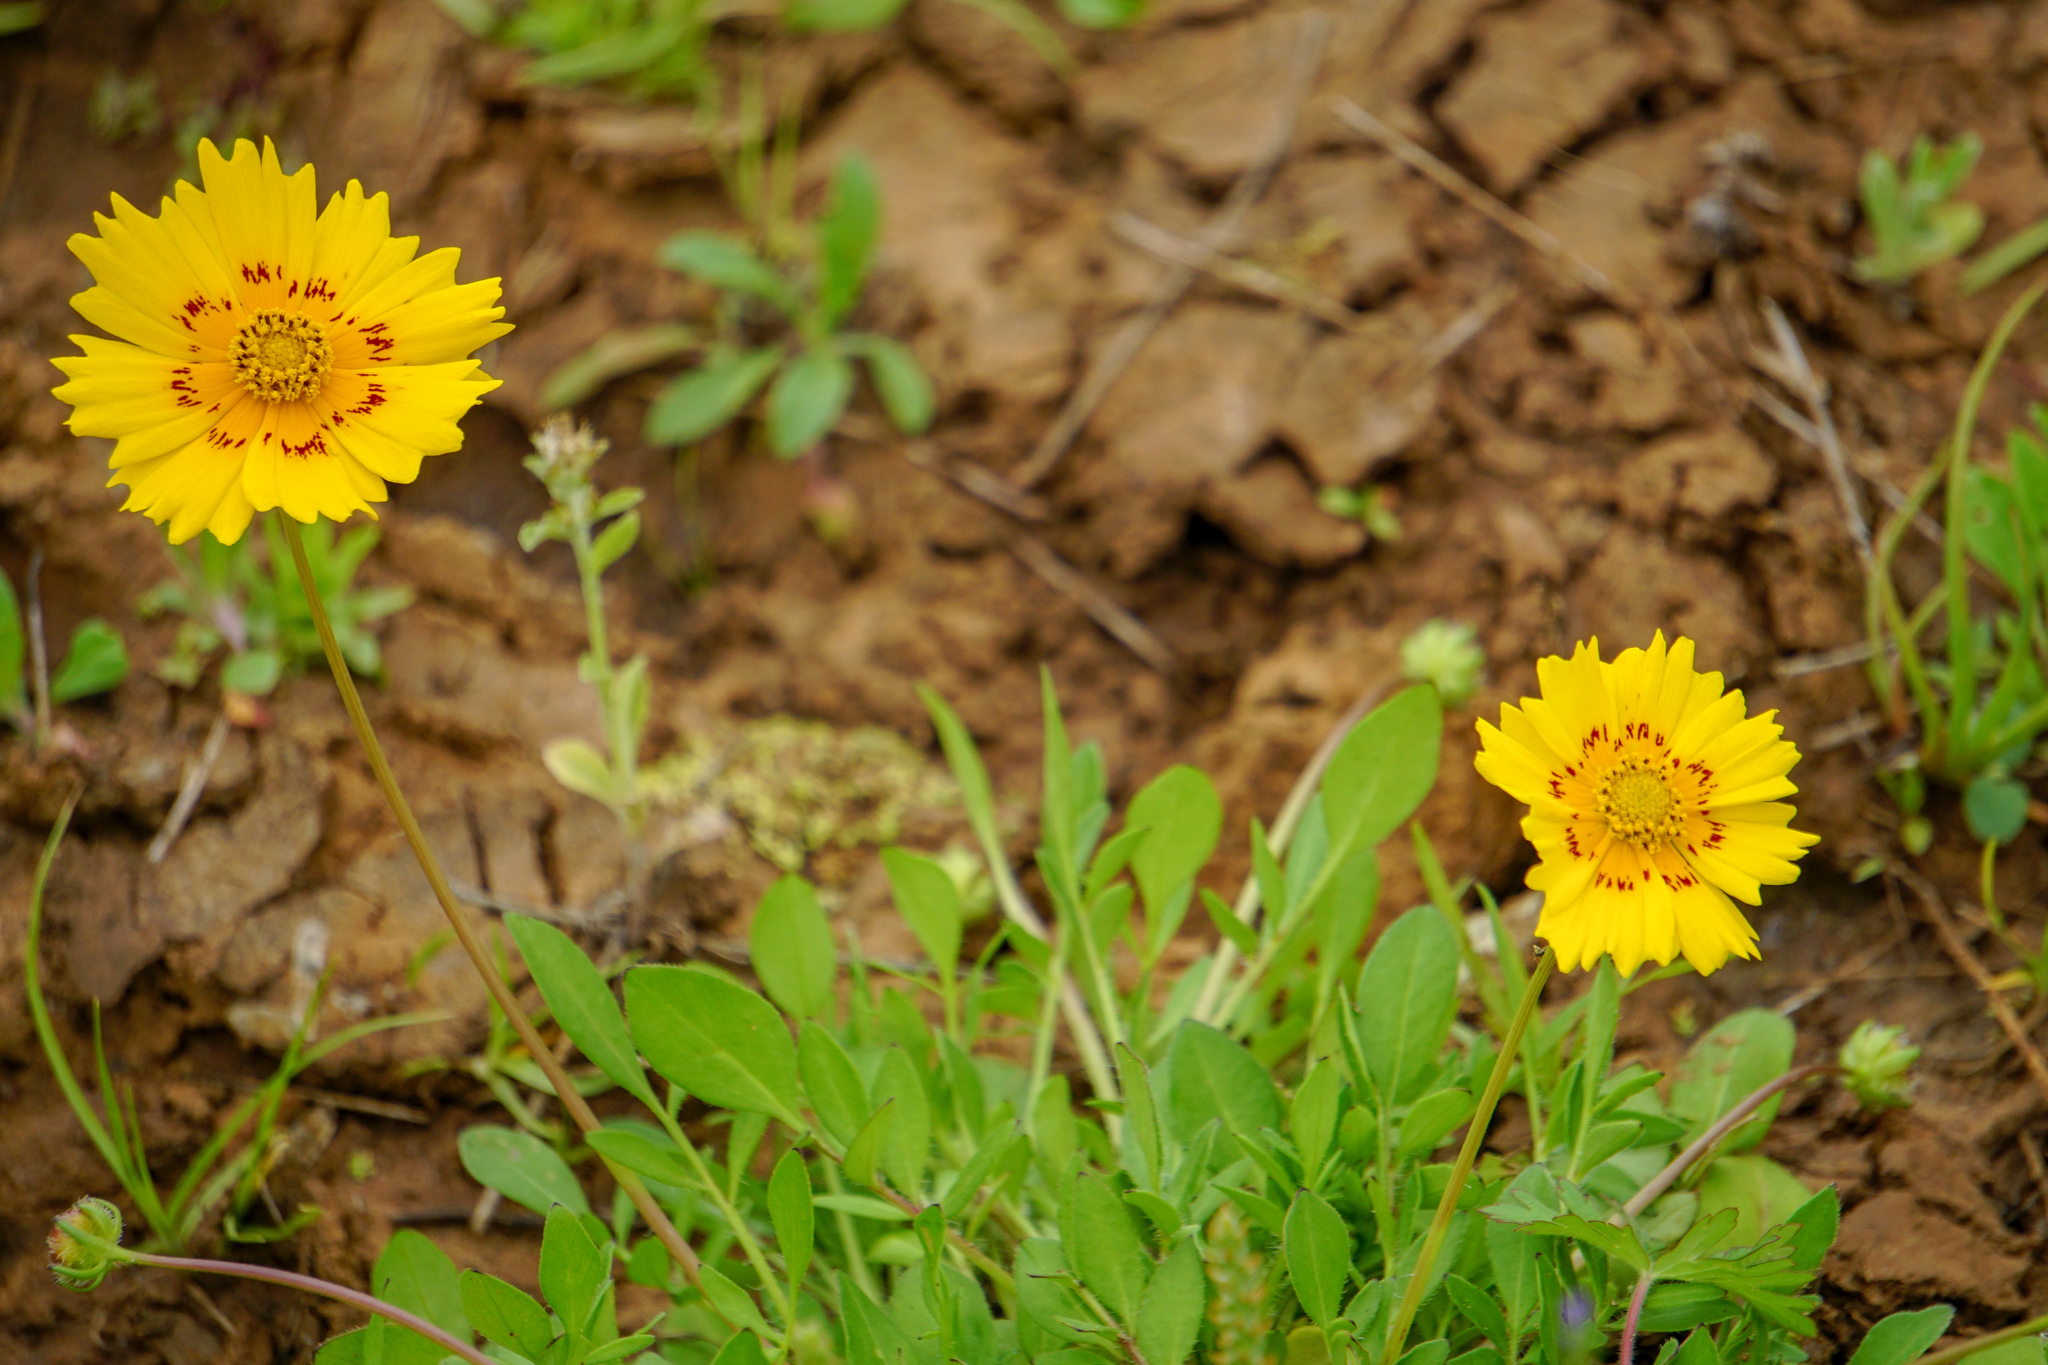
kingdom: Plantae
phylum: Tracheophyta
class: Magnoliopsida
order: Asterales
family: Asteraceae
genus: Coreopsis
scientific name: Coreopsis nuecensis
